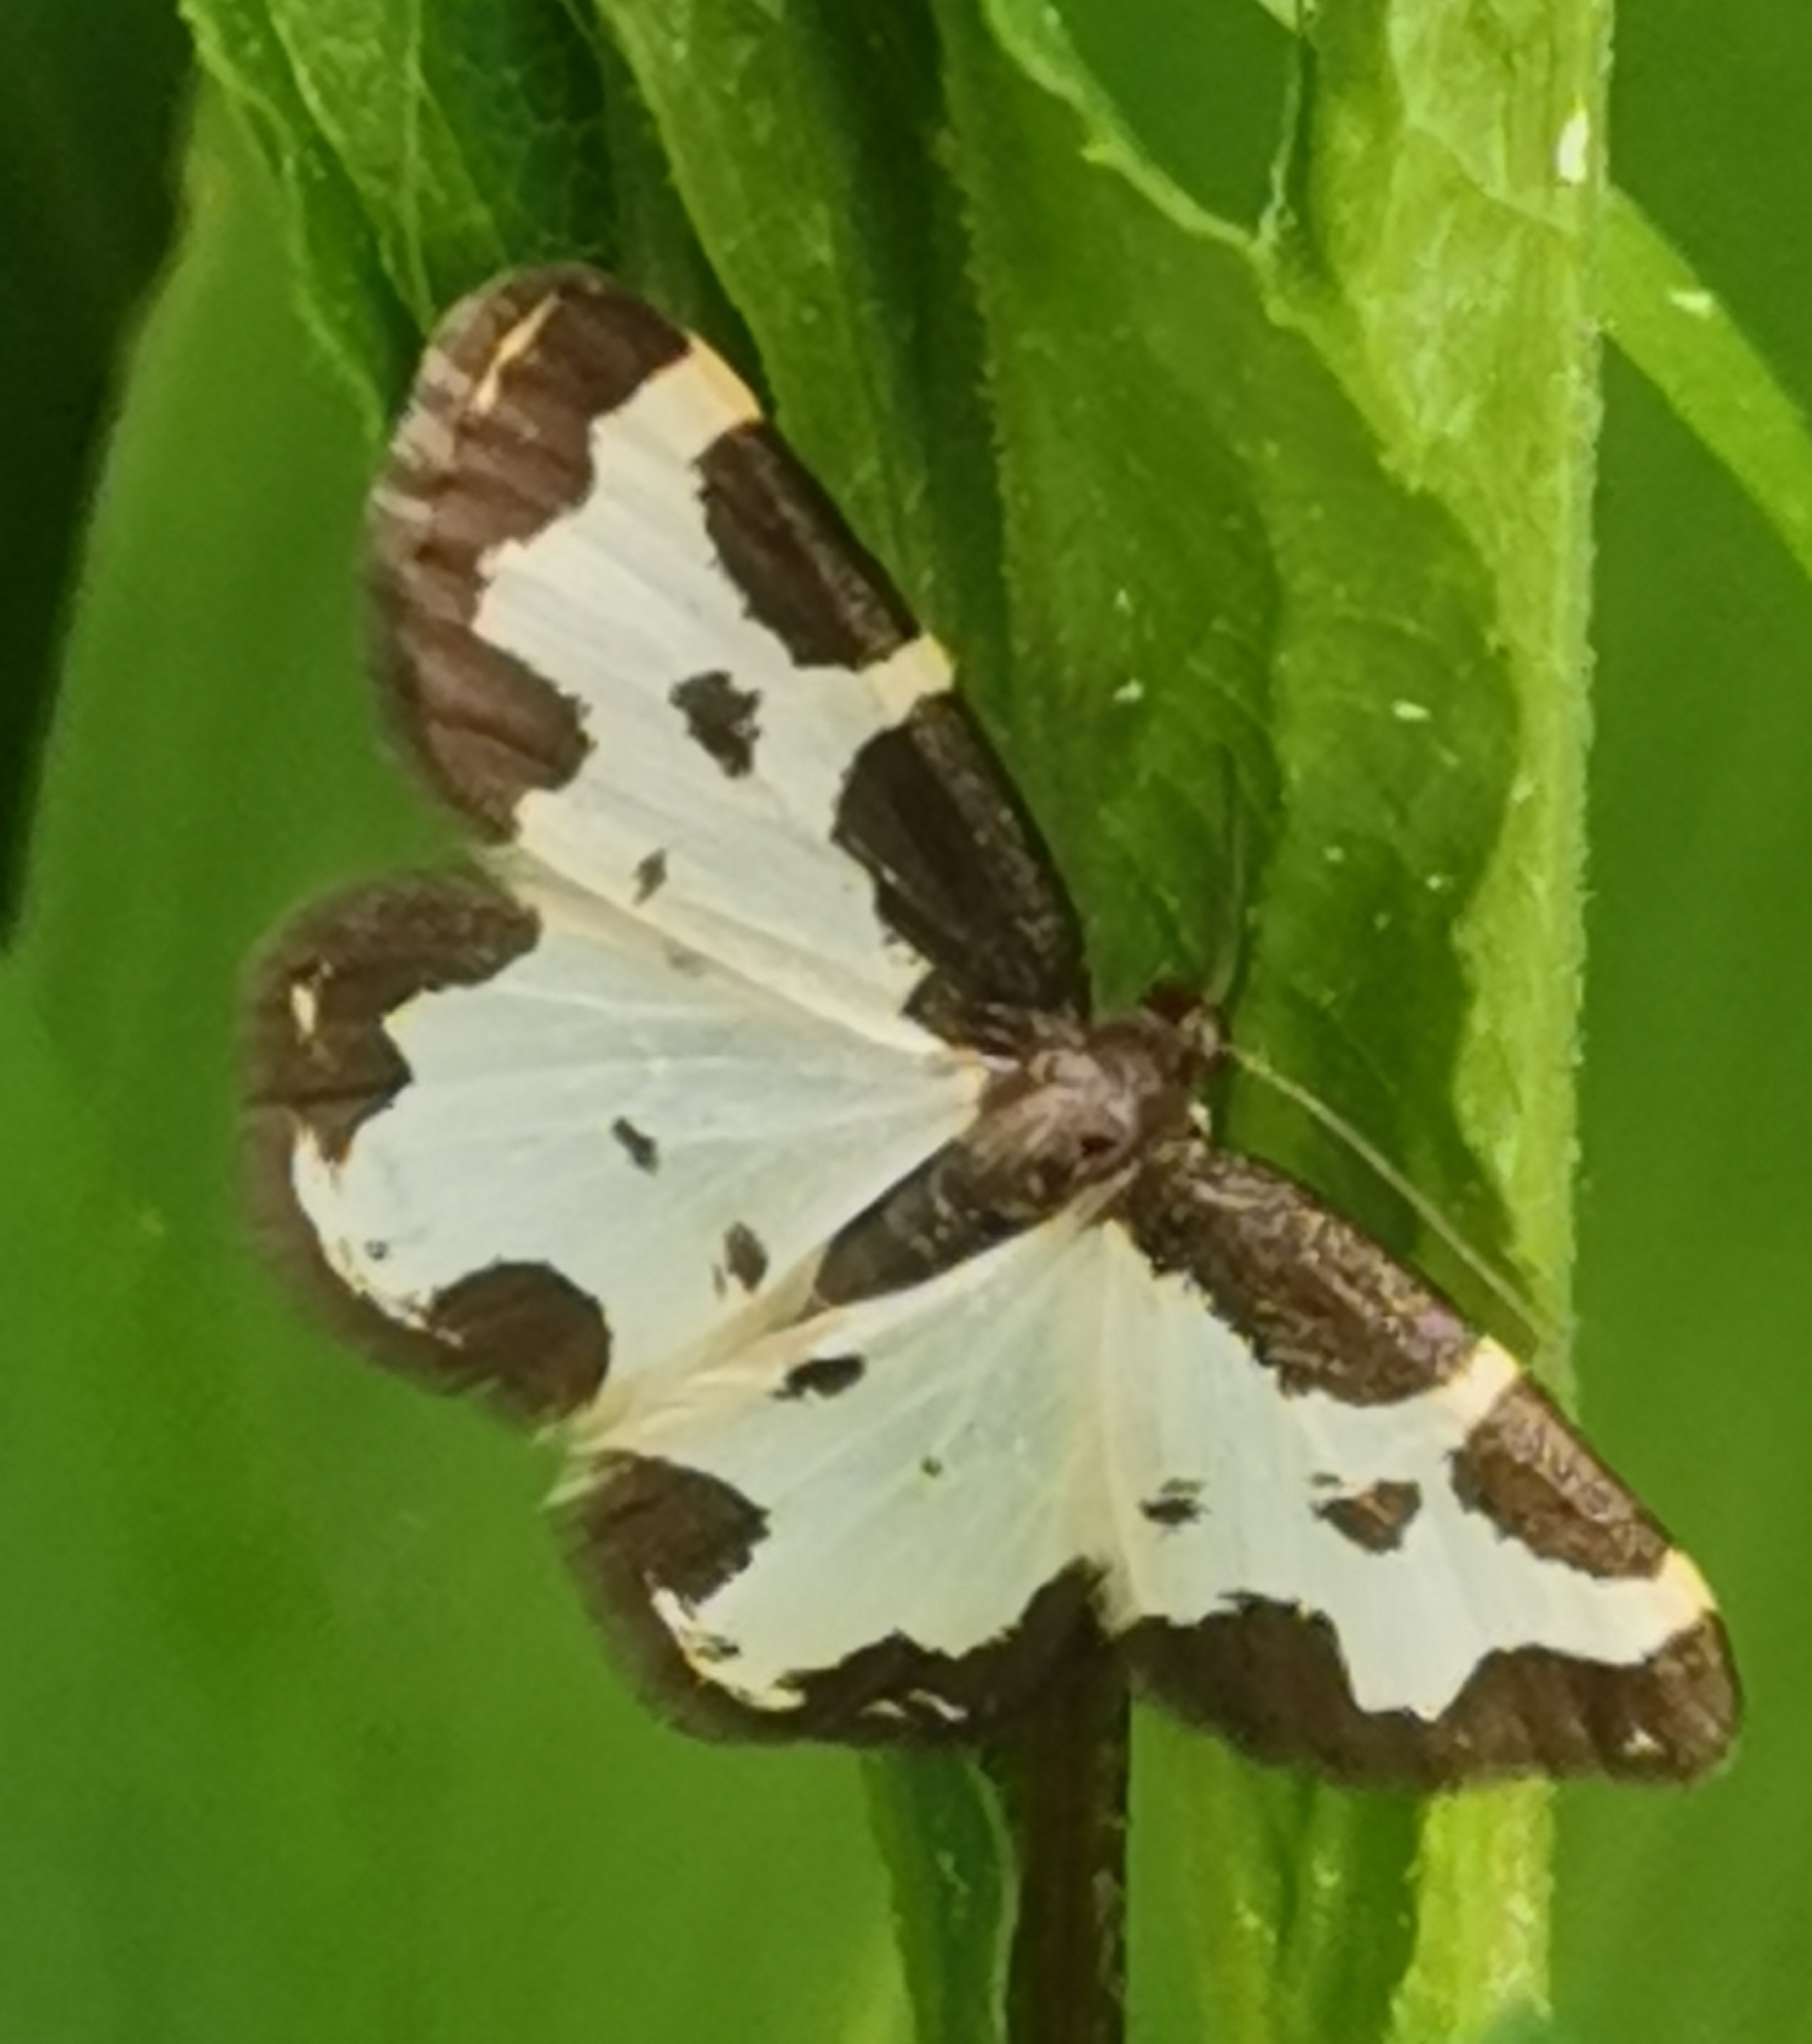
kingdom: Animalia
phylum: Arthropoda
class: Insecta
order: Lepidoptera
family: Geometridae
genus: Lomaspilis
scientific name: Lomaspilis marginata
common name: Clouded border
